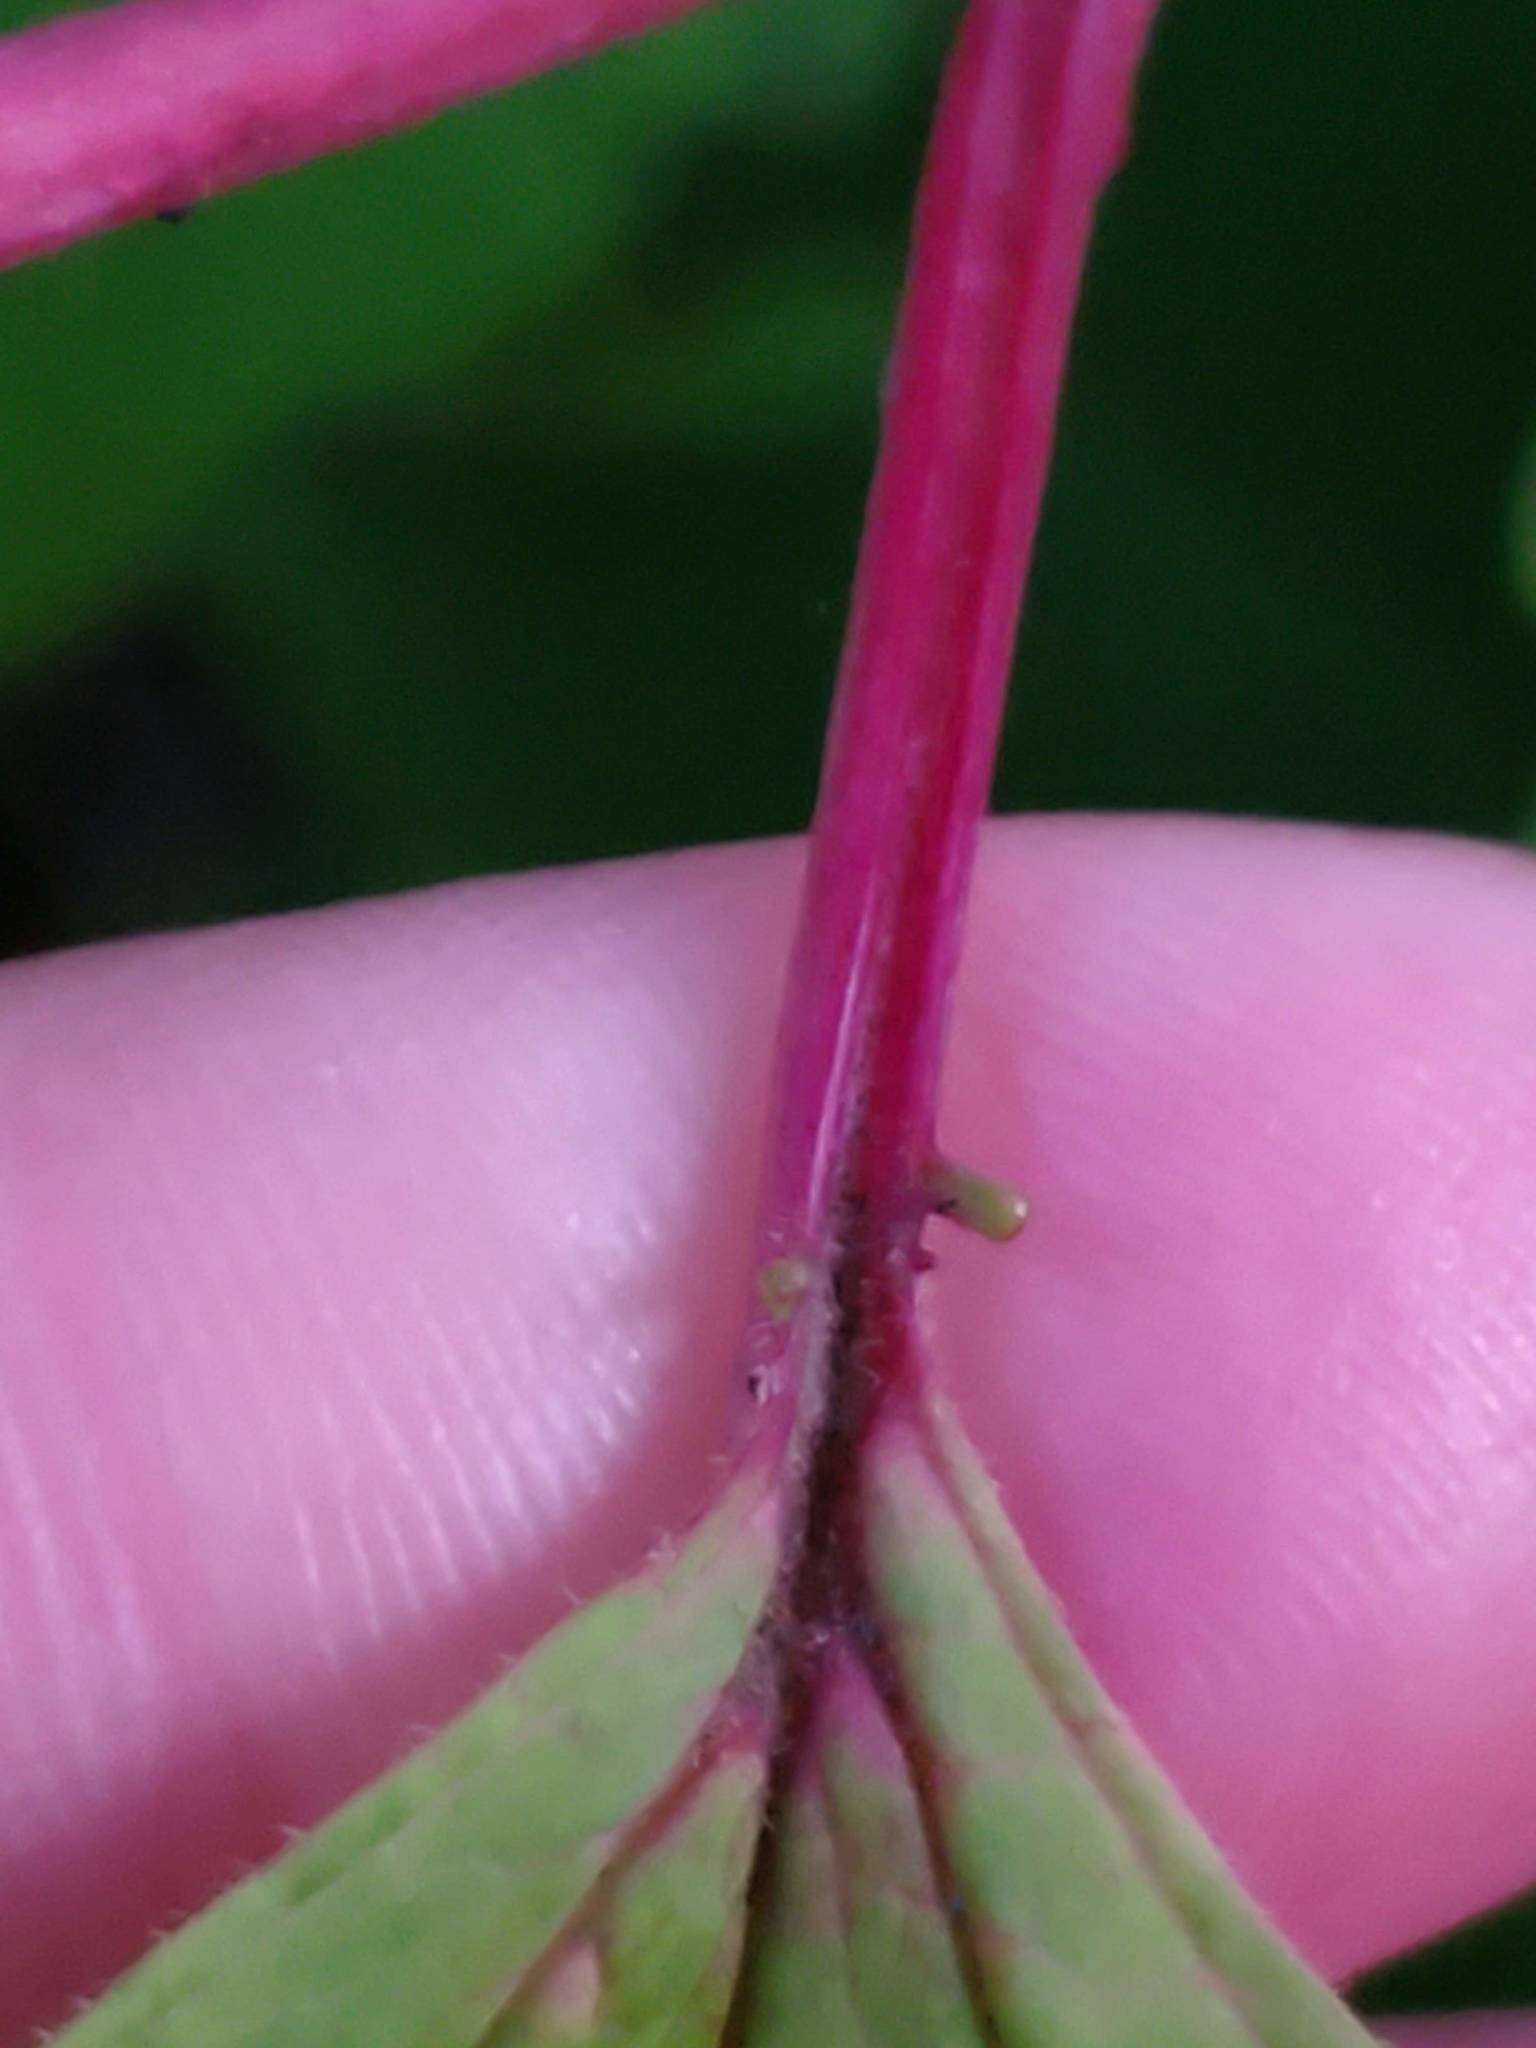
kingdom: Plantae
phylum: Tracheophyta
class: Magnoliopsida
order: Dipsacales
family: Viburnaceae
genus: Viburnum
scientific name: Viburnum trilobum
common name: American cranberrybush
